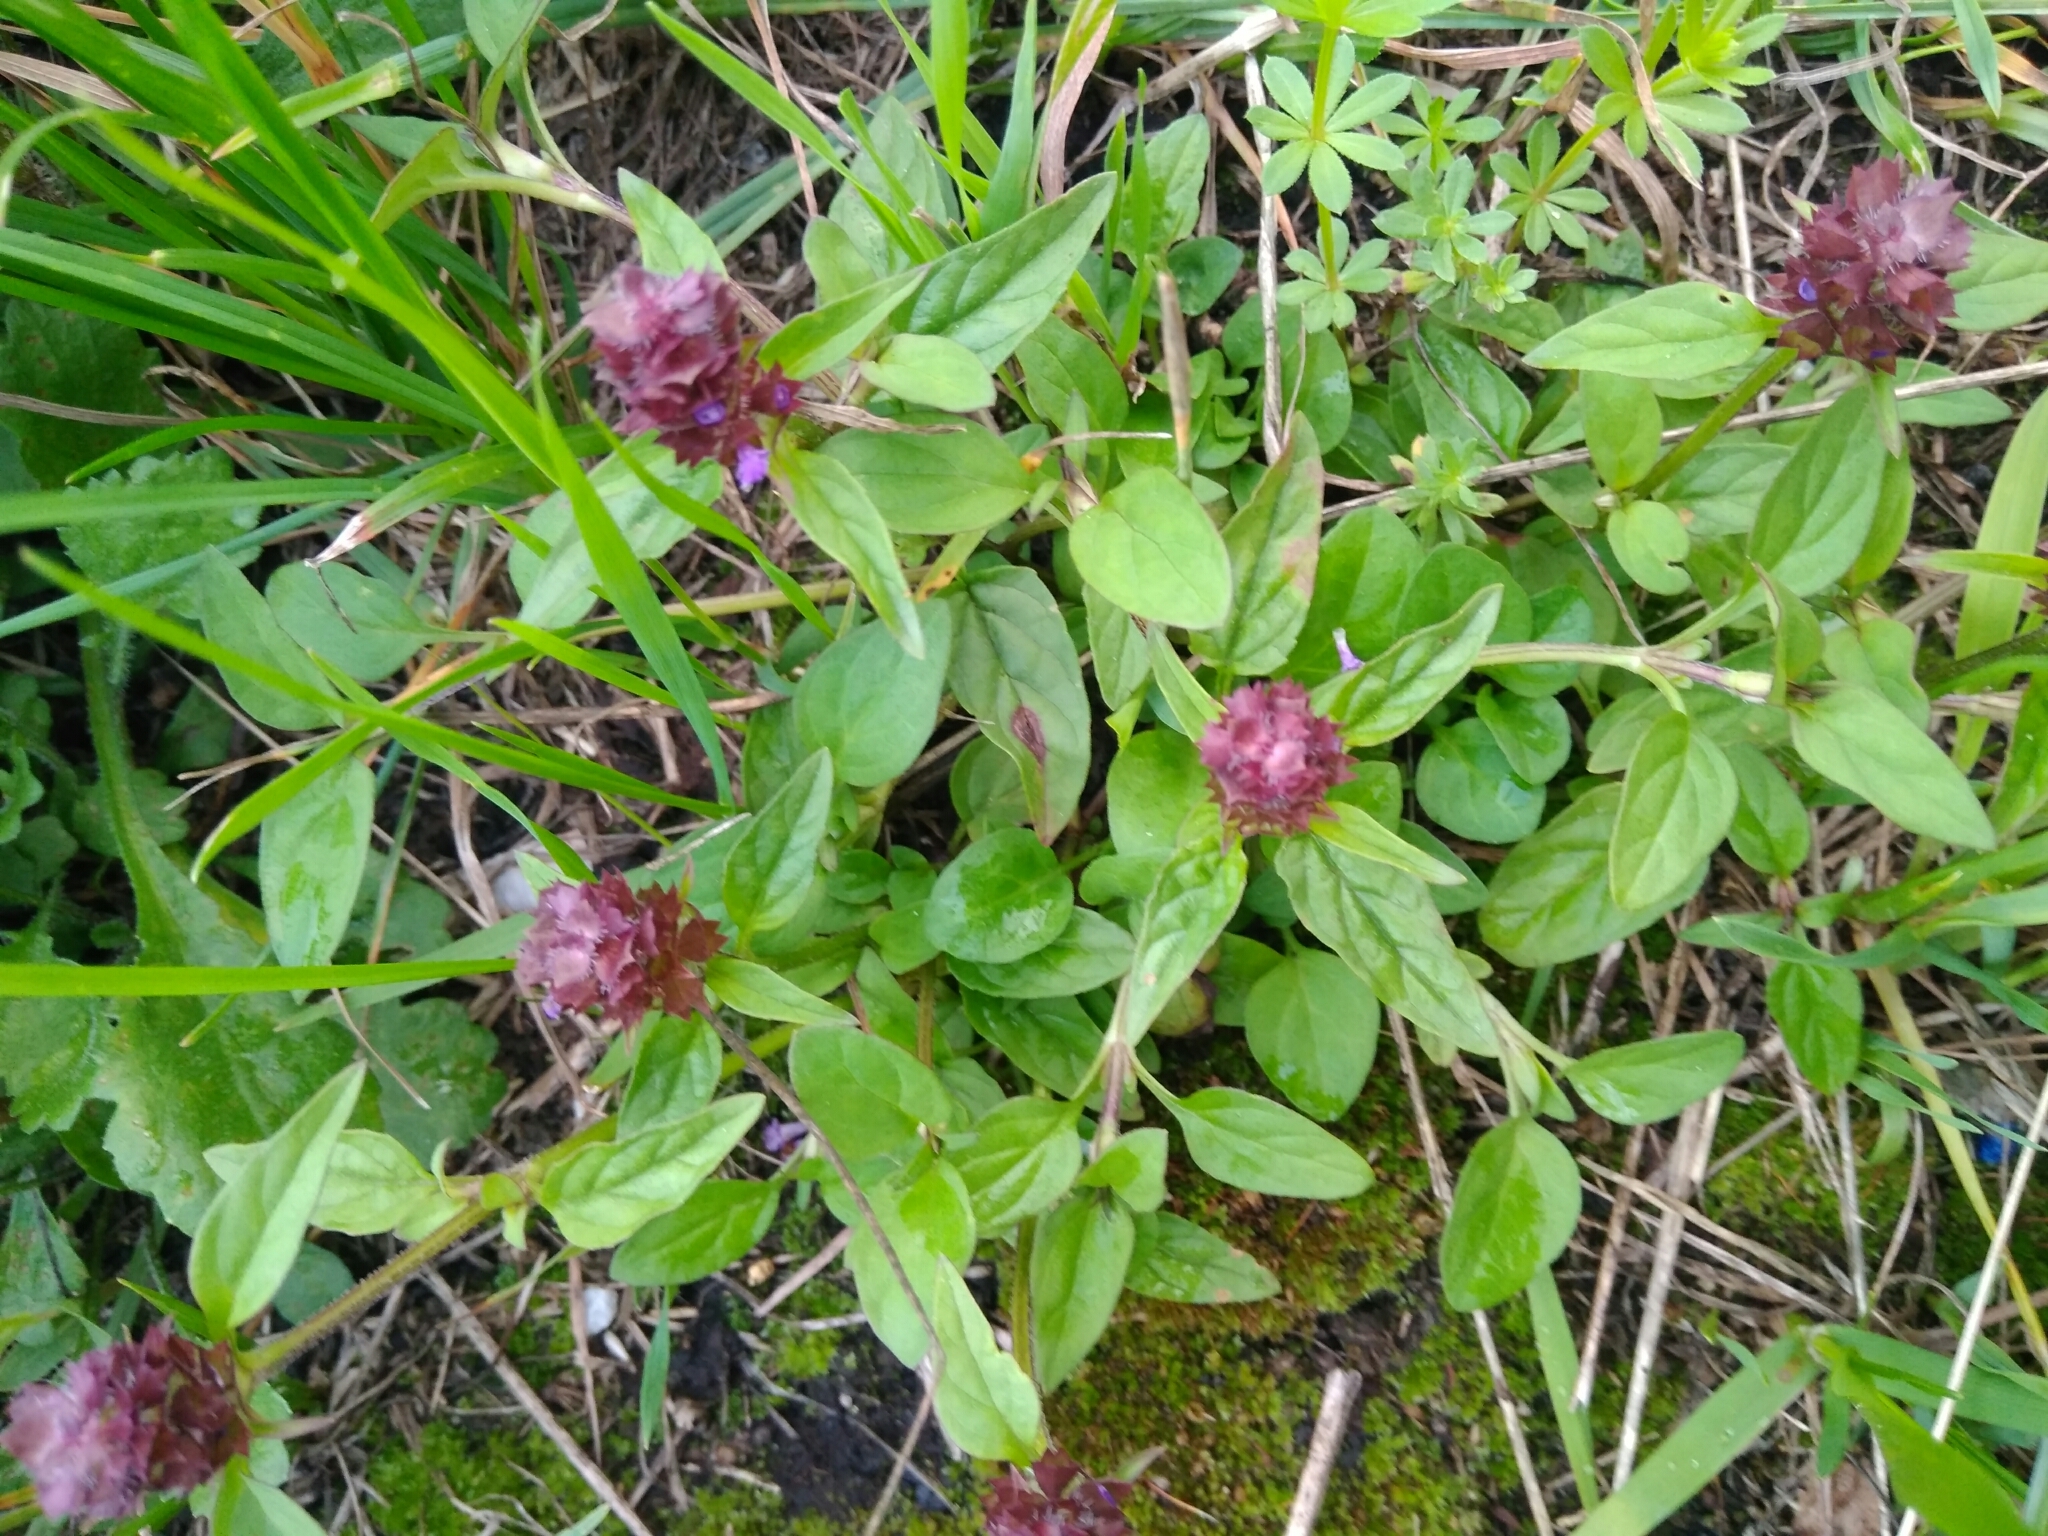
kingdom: Plantae
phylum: Tracheophyta
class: Magnoliopsida
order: Lamiales
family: Lamiaceae
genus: Prunella
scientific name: Prunella vulgaris
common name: Heal-all
